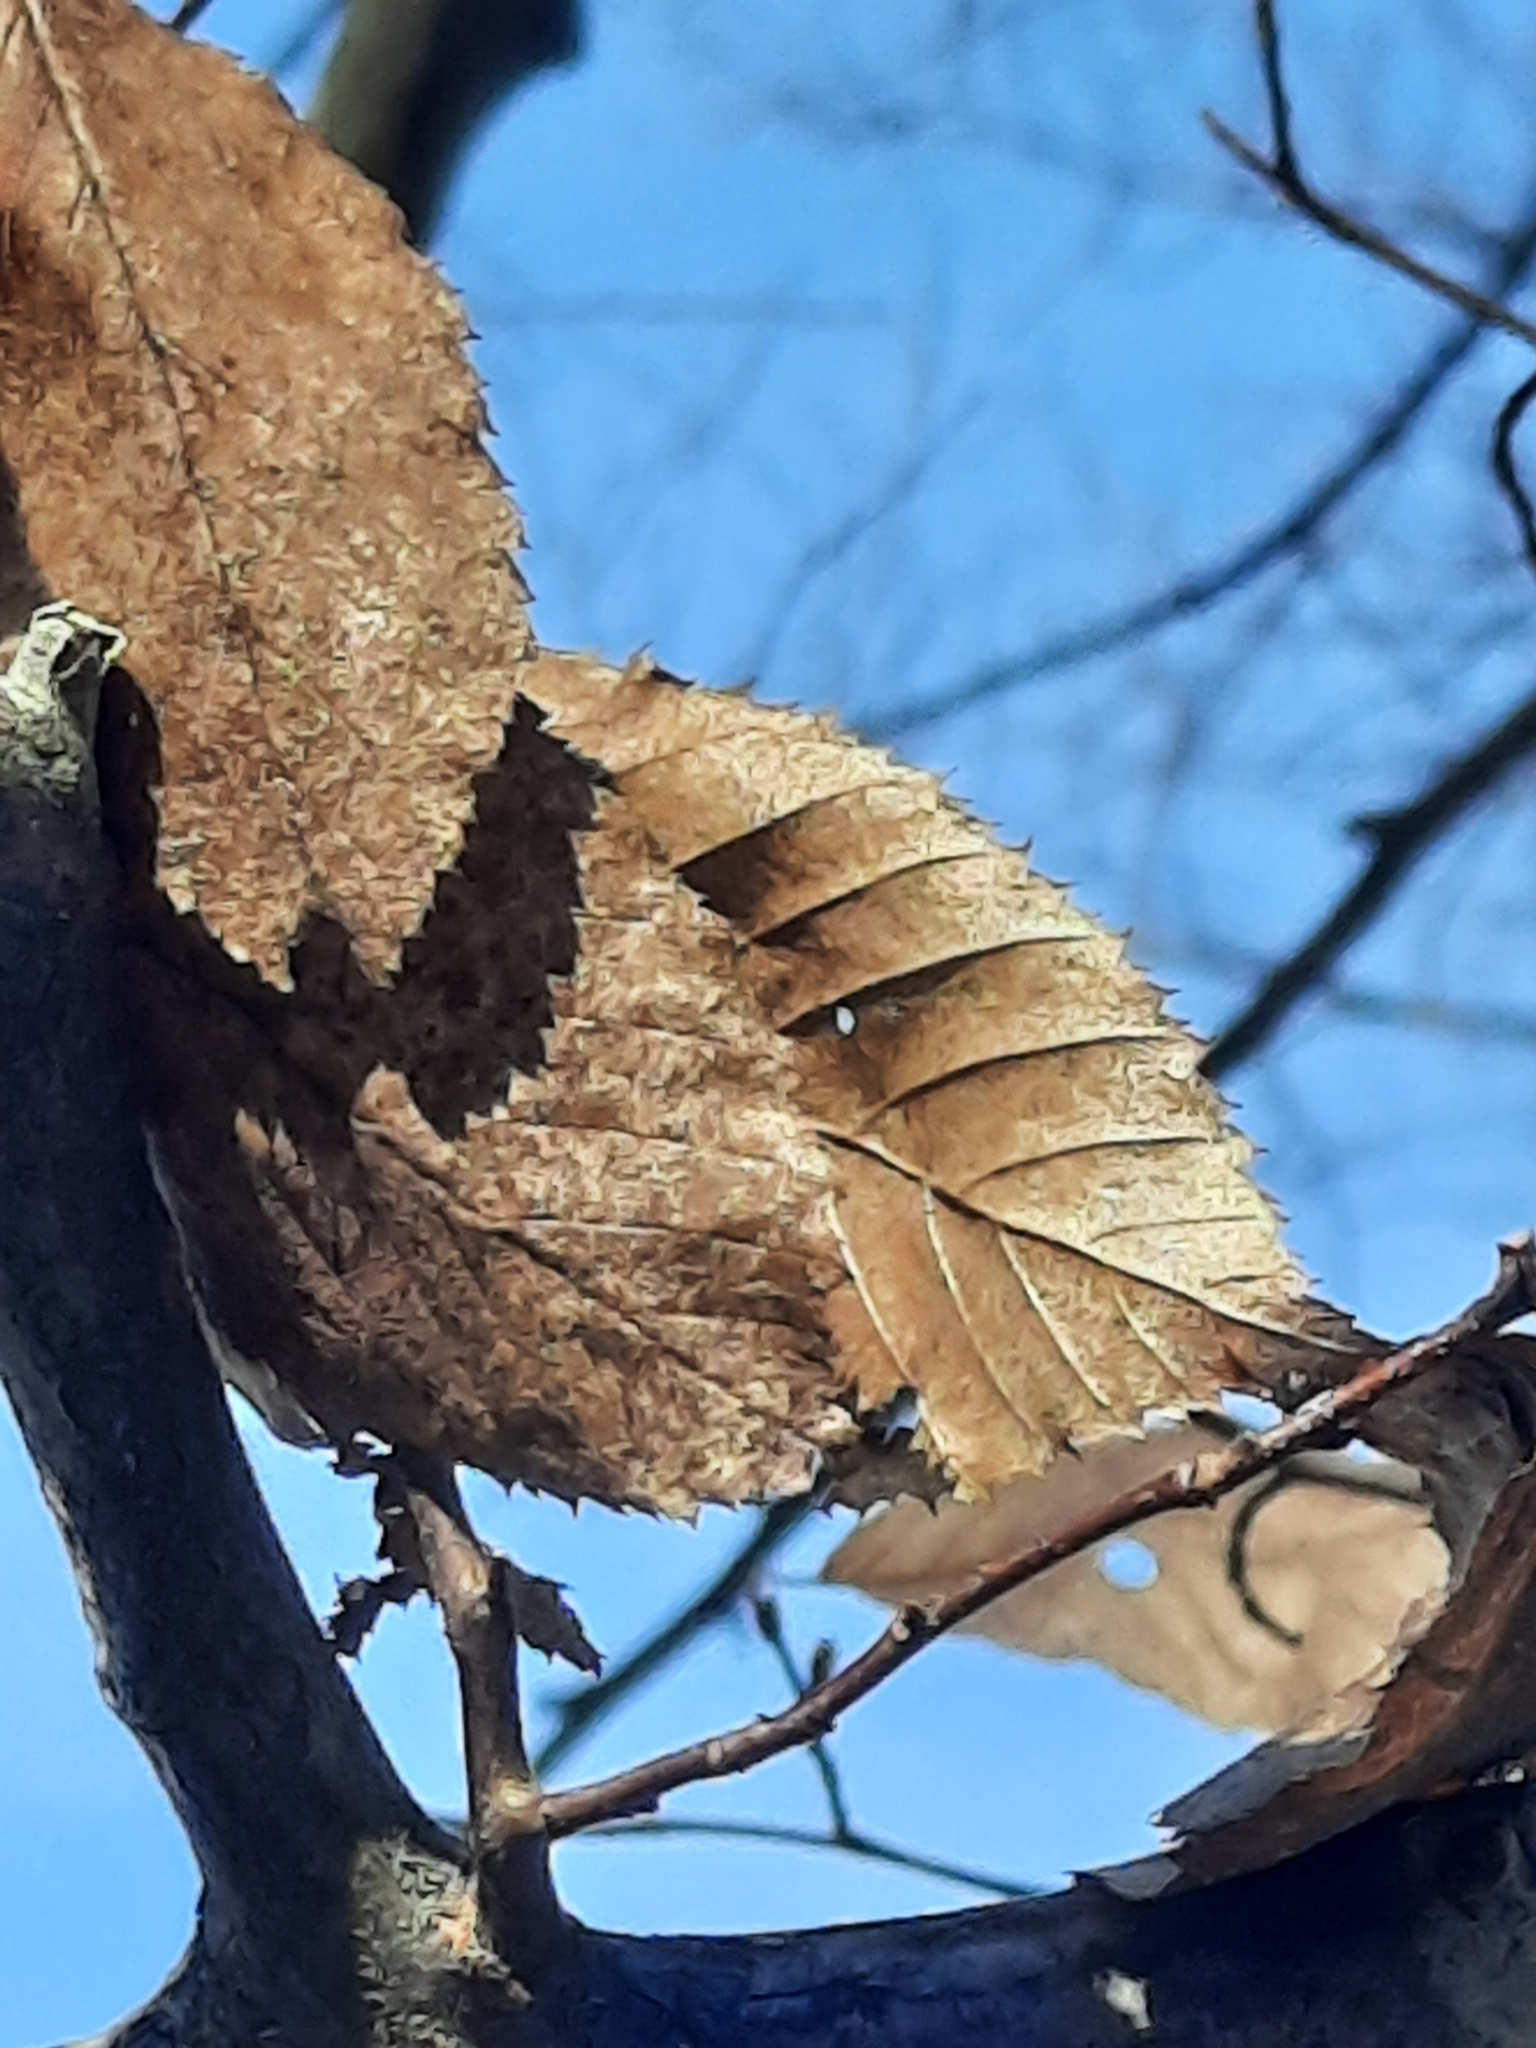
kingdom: Plantae
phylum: Tracheophyta
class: Magnoliopsida
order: Fagales
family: Betulaceae
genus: Carpinus
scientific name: Carpinus caroliniana
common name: American hornbeam
